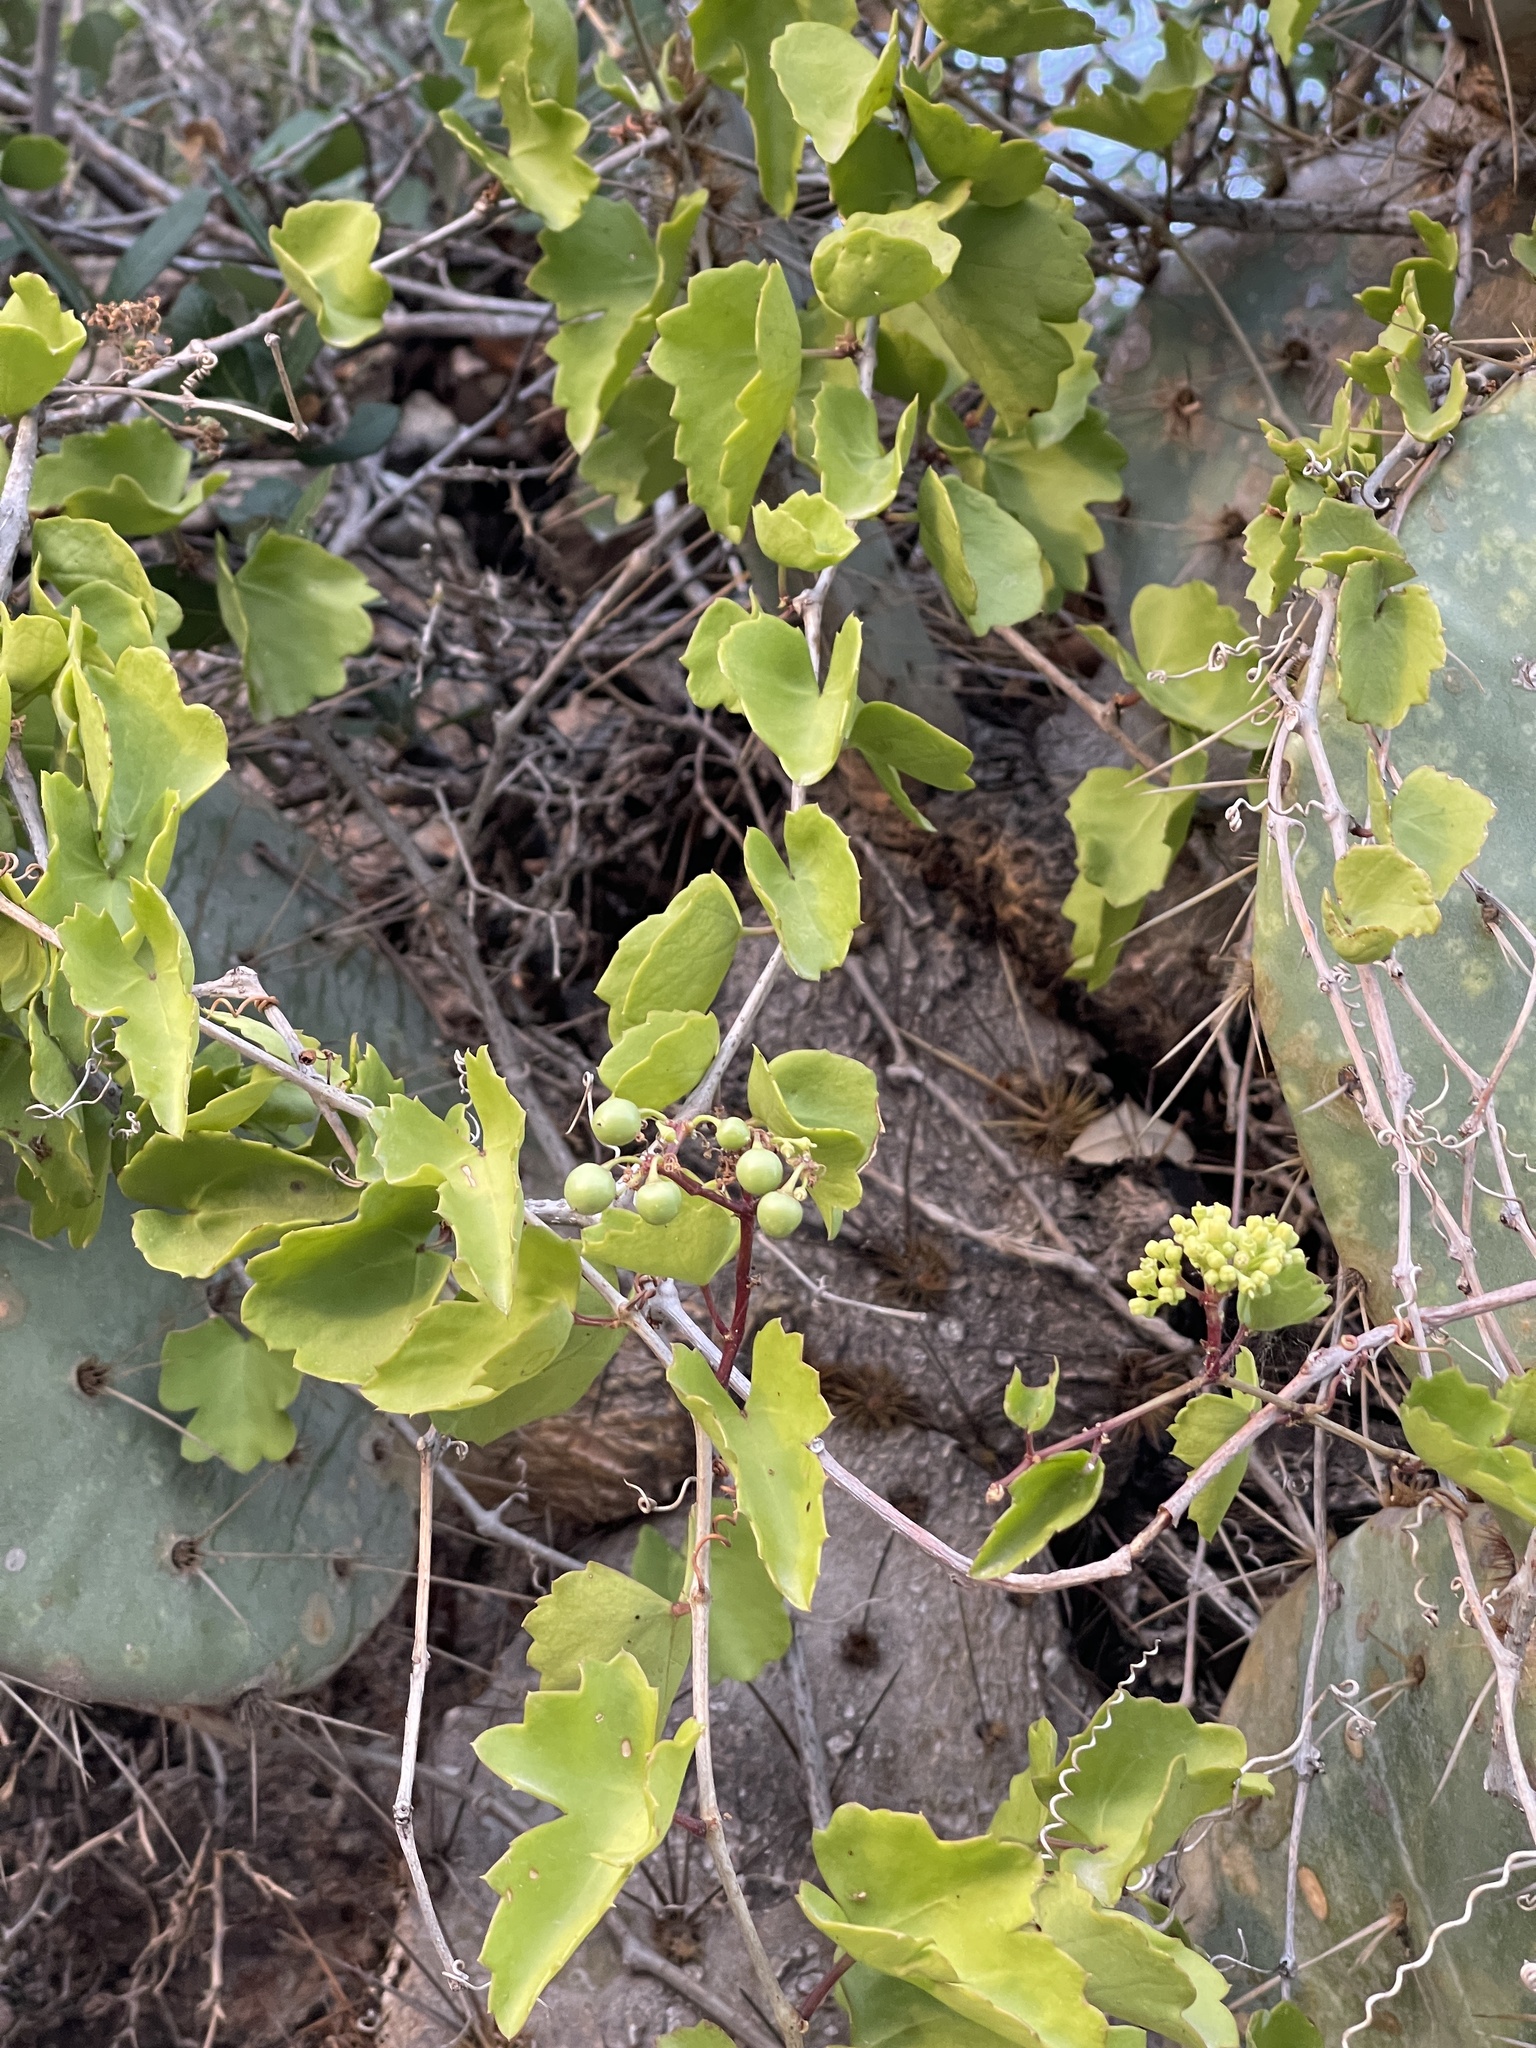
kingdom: Plantae
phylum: Tracheophyta
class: Magnoliopsida
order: Vitales
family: Vitaceae
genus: Cissus
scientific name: Cissus trifoliata
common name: Vine-sorrel
